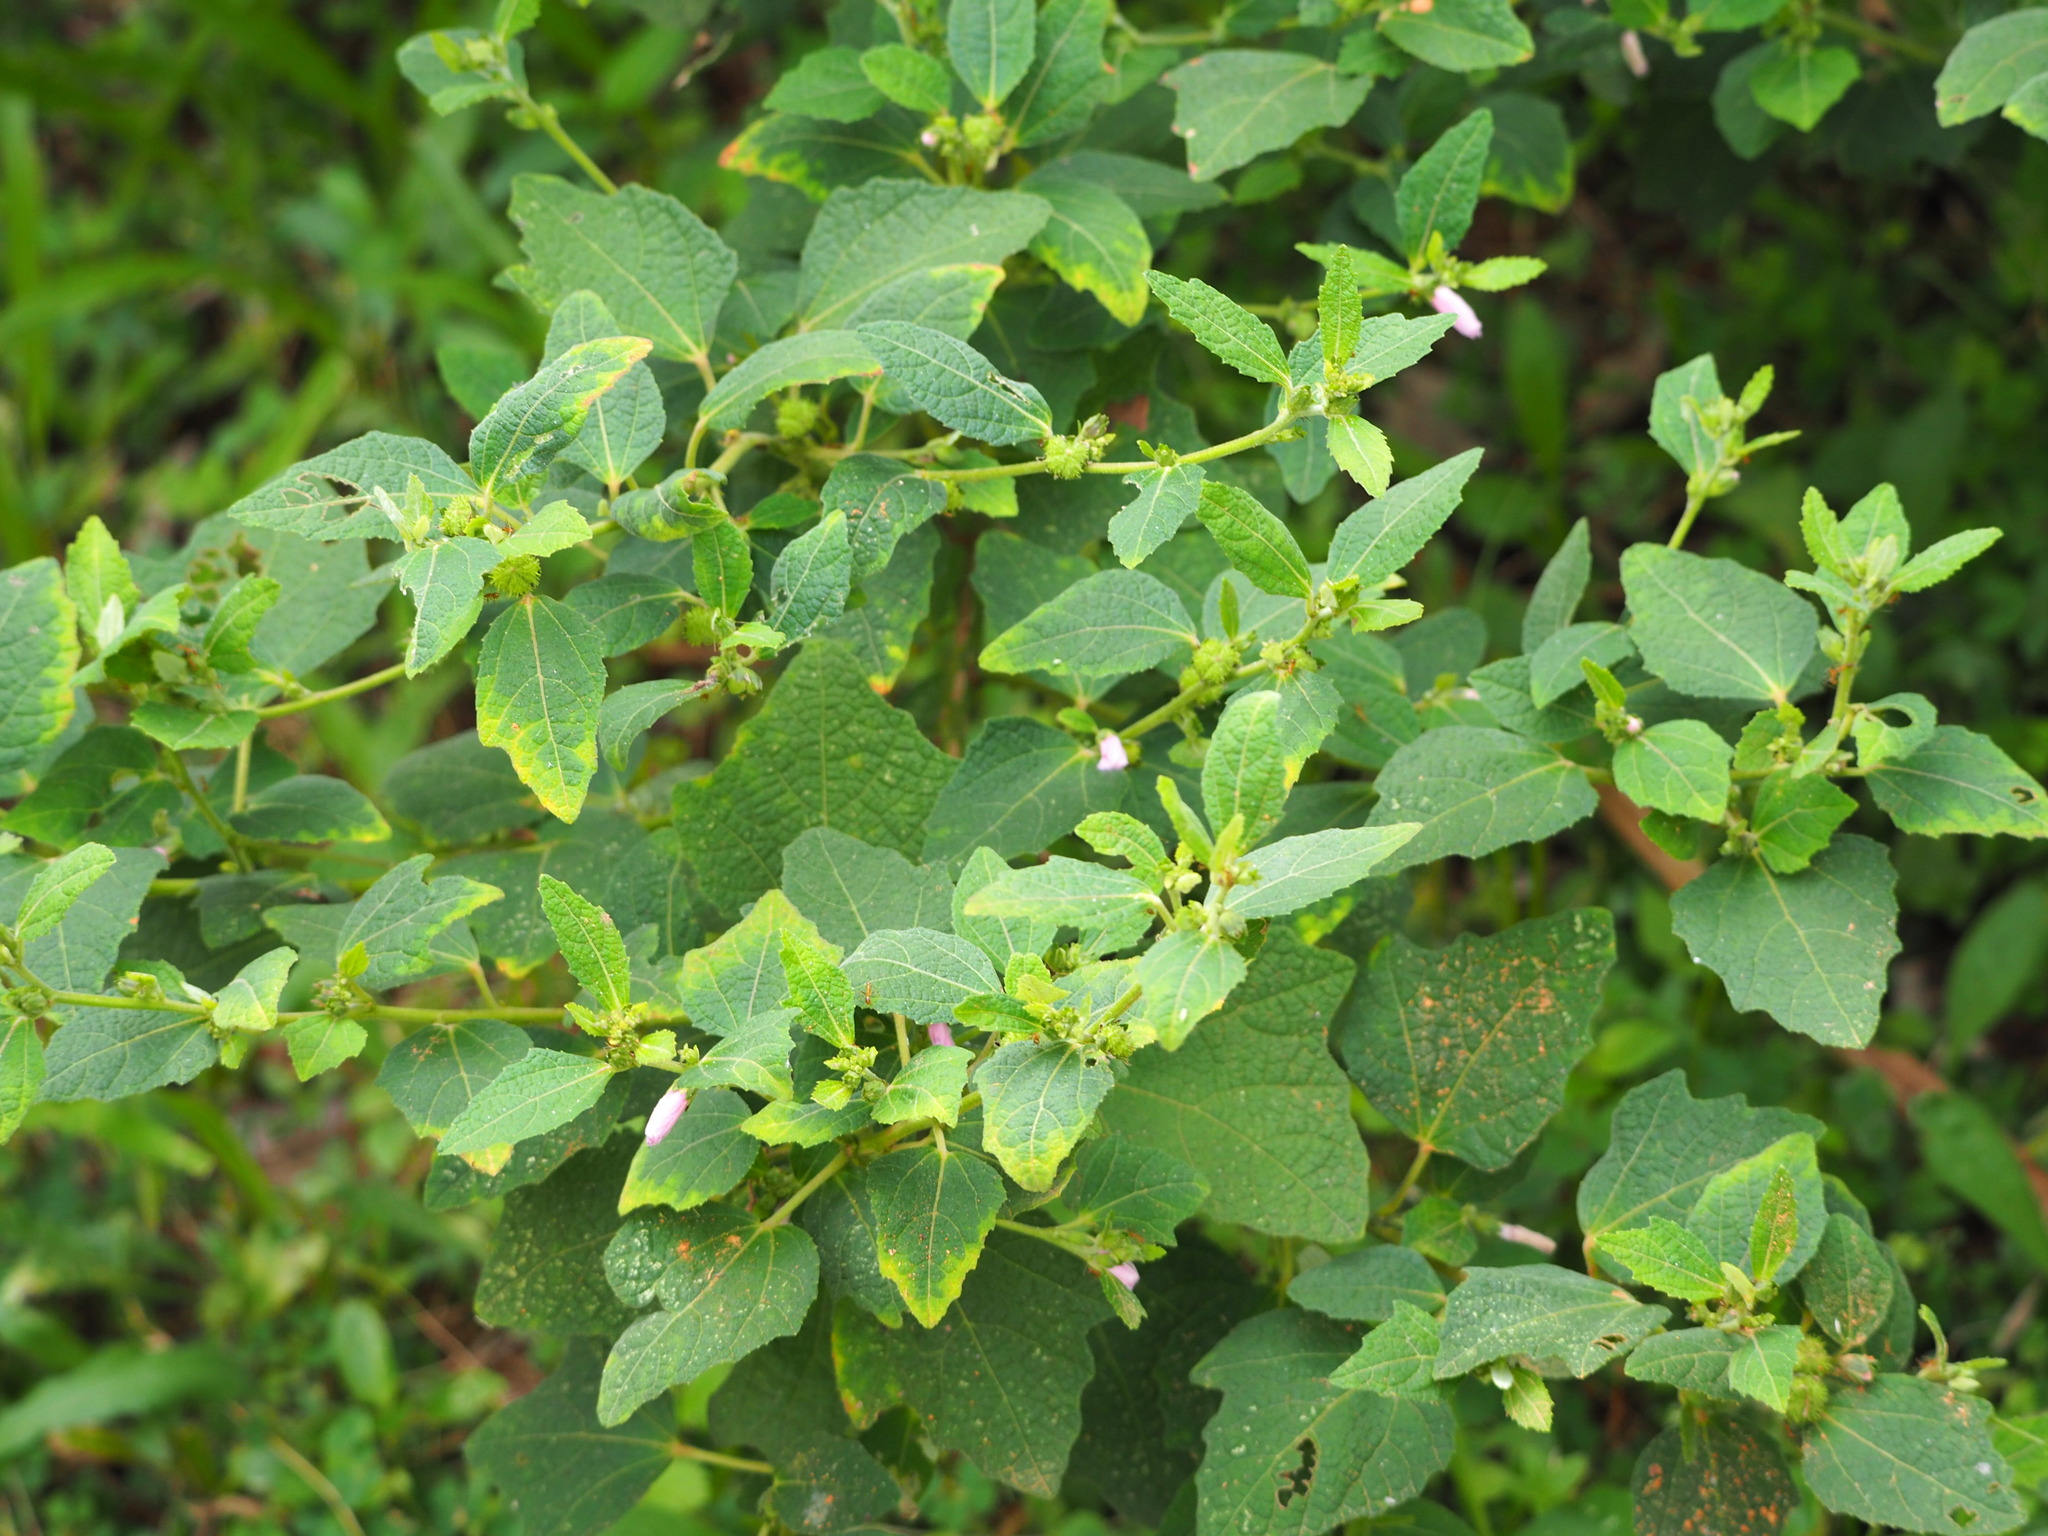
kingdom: Plantae
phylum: Tracheophyta
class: Magnoliopsida
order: Malvales
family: Malvaceae
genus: Urena
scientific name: Urena lobata
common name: Caesarweed
